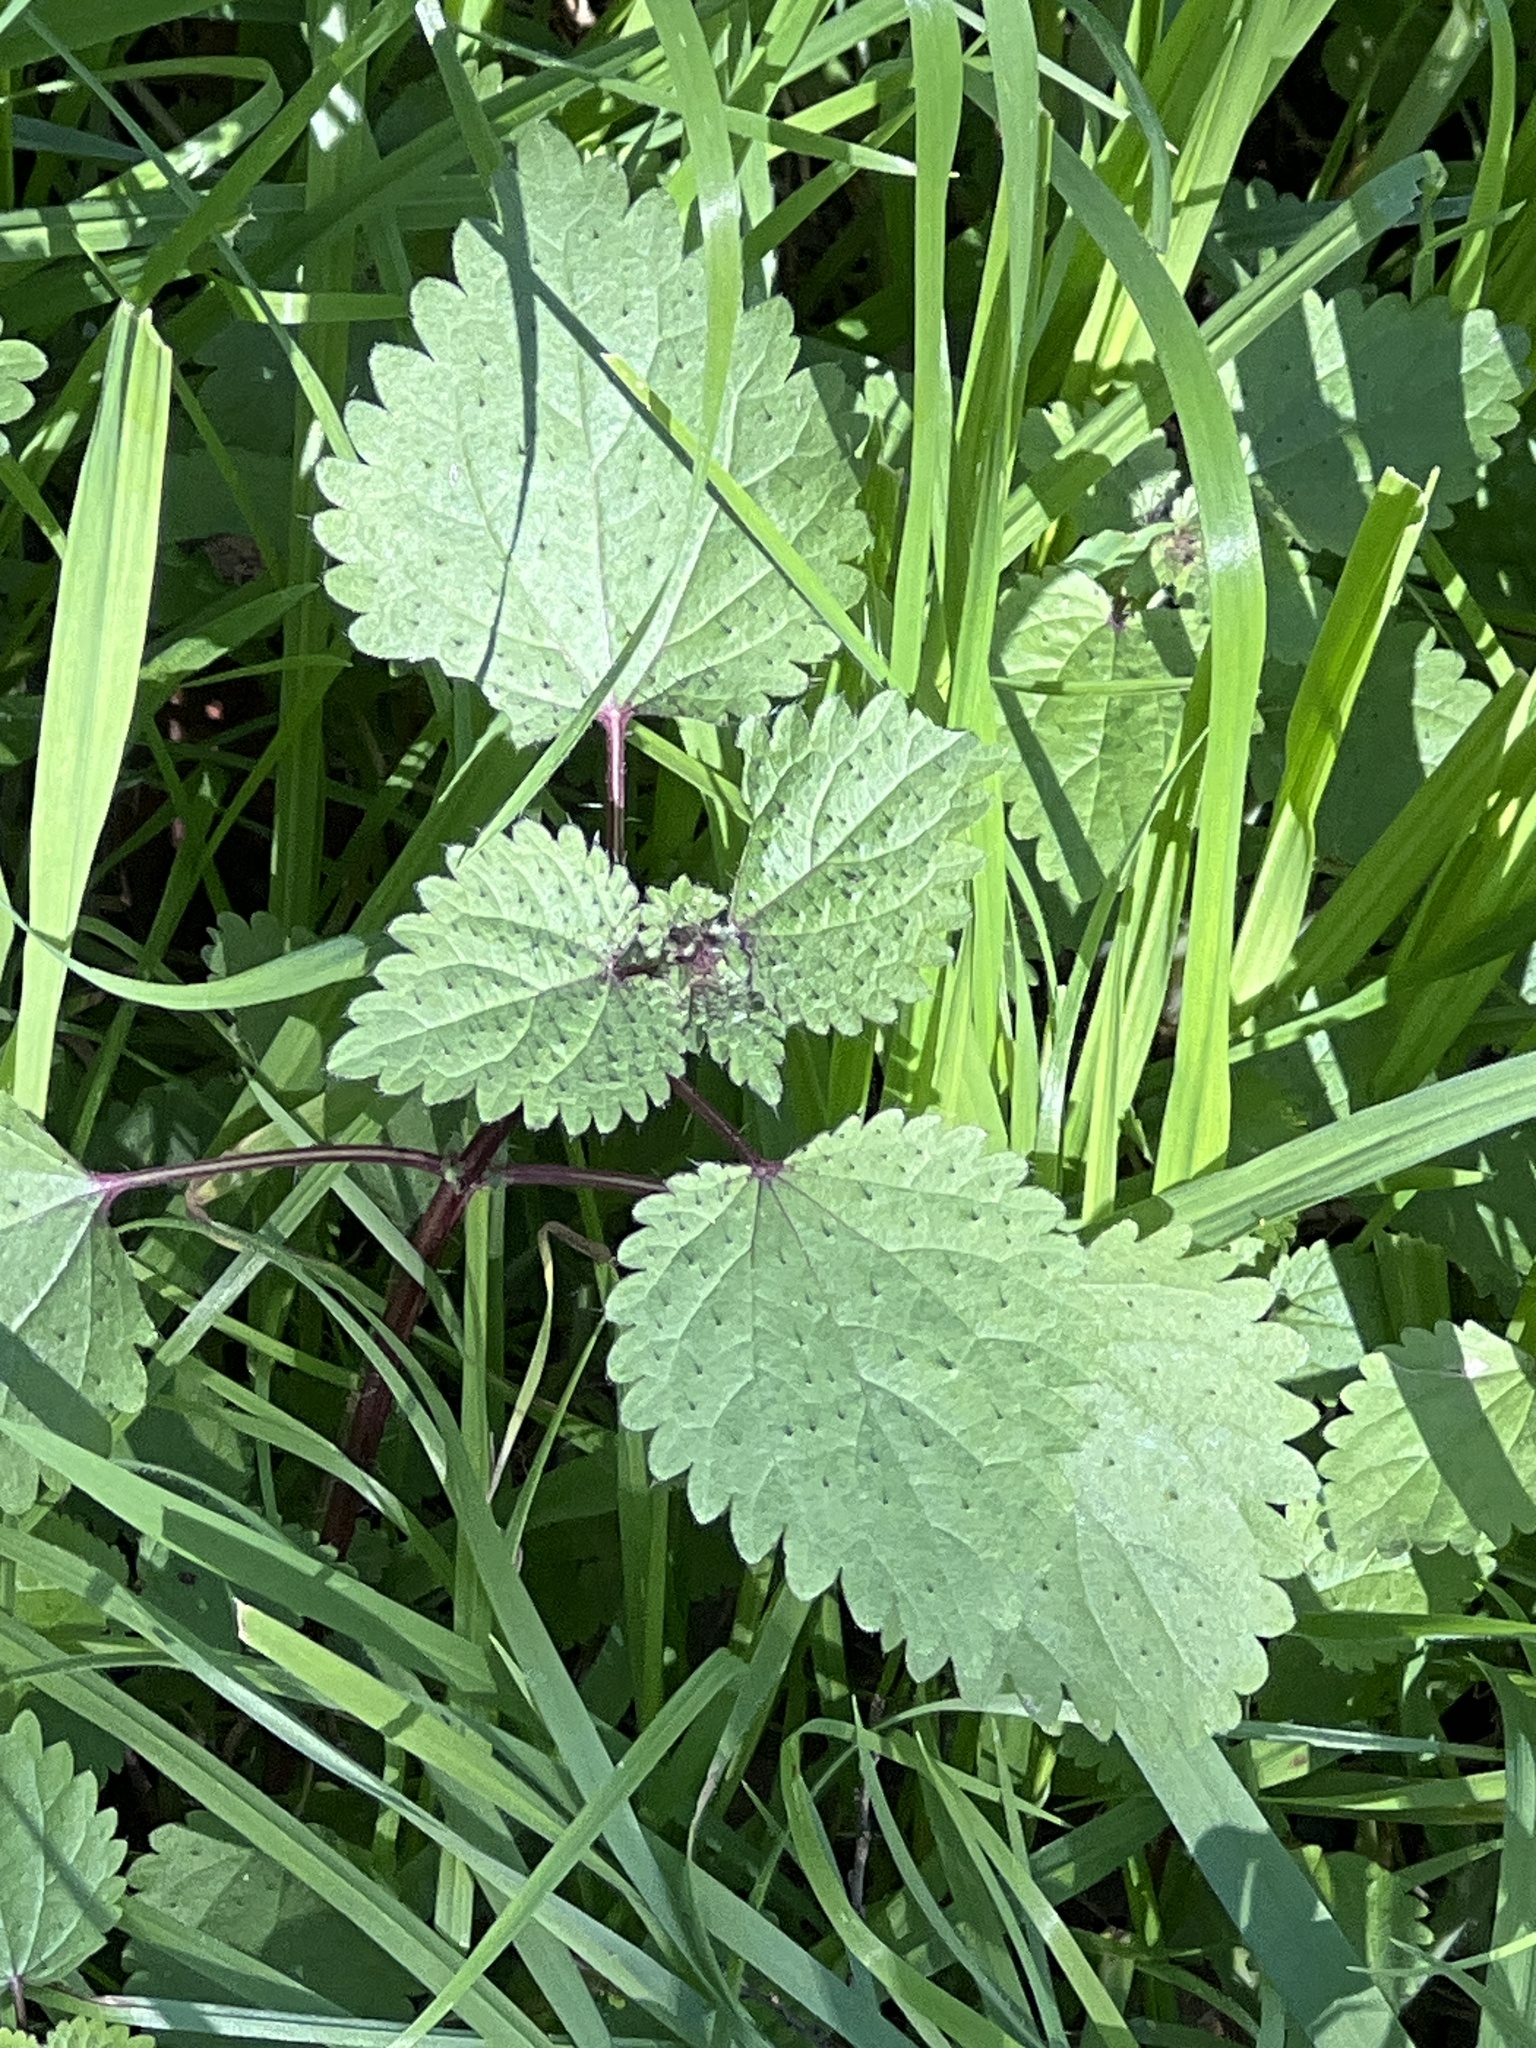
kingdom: Plantae
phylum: Tracheophyta
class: Magnoliopsida
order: Rosales
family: Urticaceae
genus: Urtica
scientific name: Urtica chamaedryoides
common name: Heart-leaf nettle
